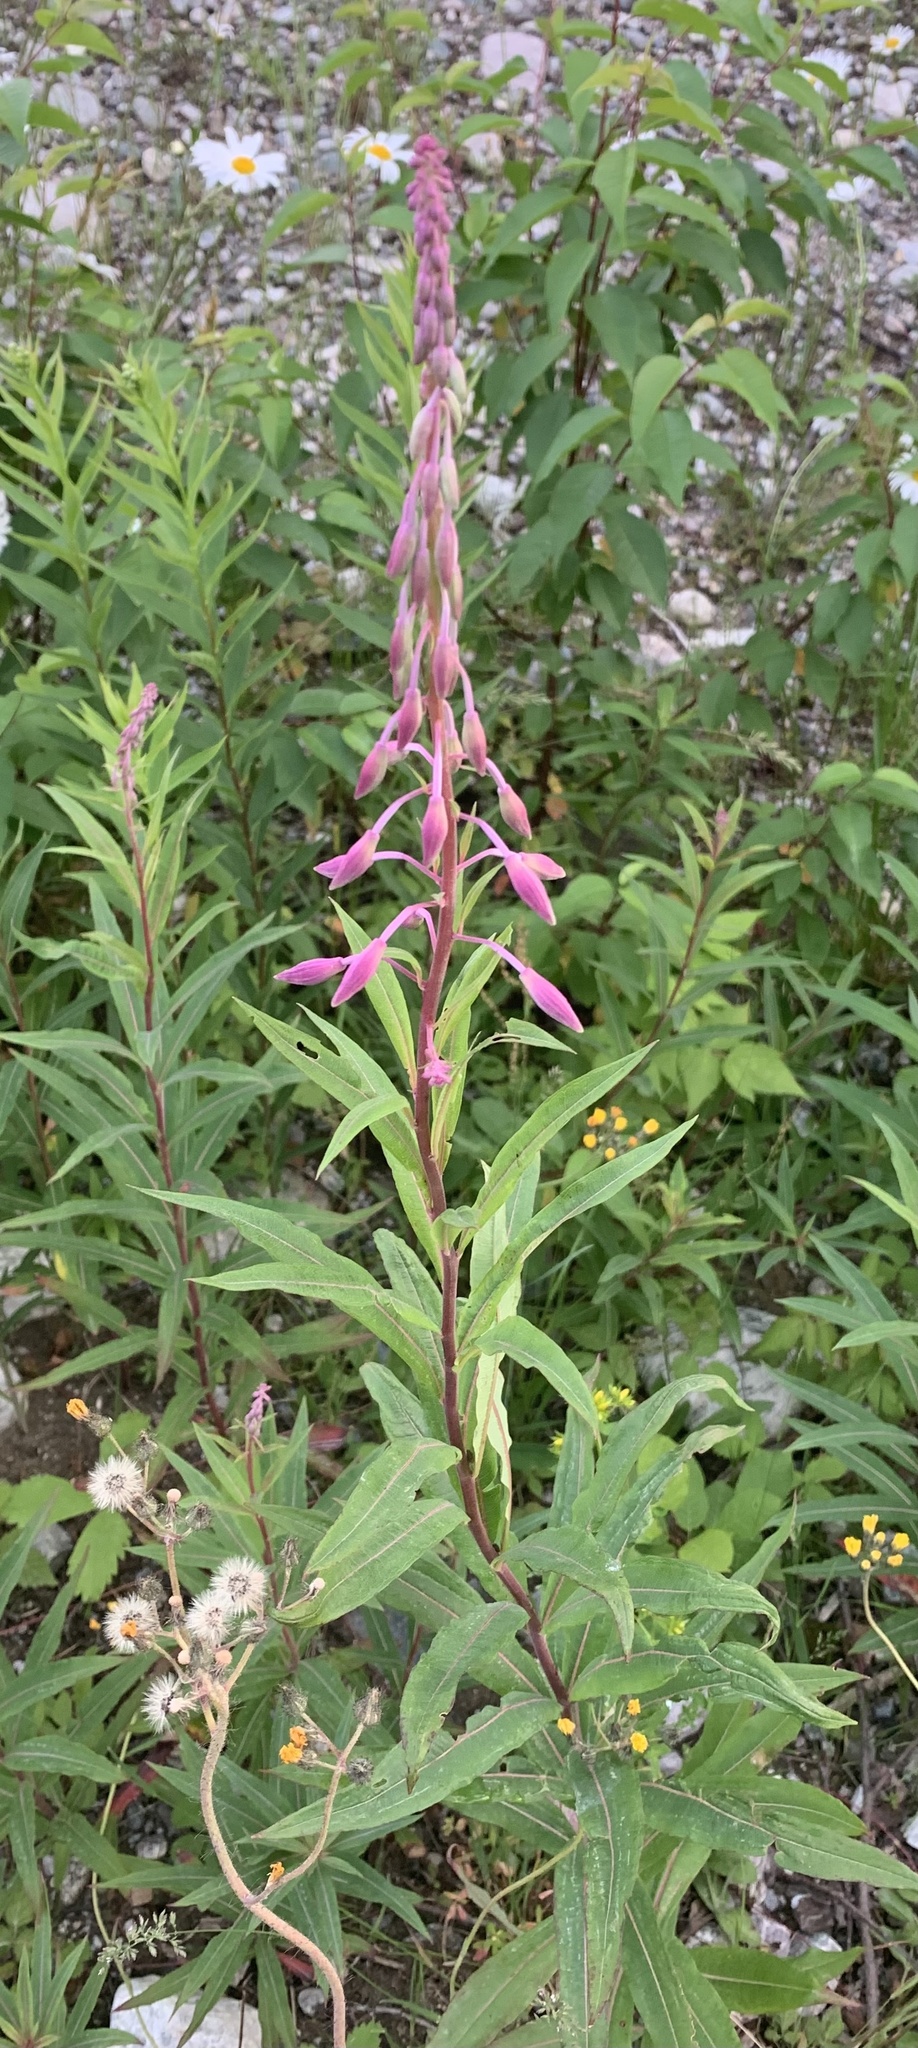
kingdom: Plantae
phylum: Tracheophyta
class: Magnoliopsida
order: Myrtales
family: Onagraceae
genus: Chamaenerion
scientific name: Chamaenerion angustifolium
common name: Fireweed
